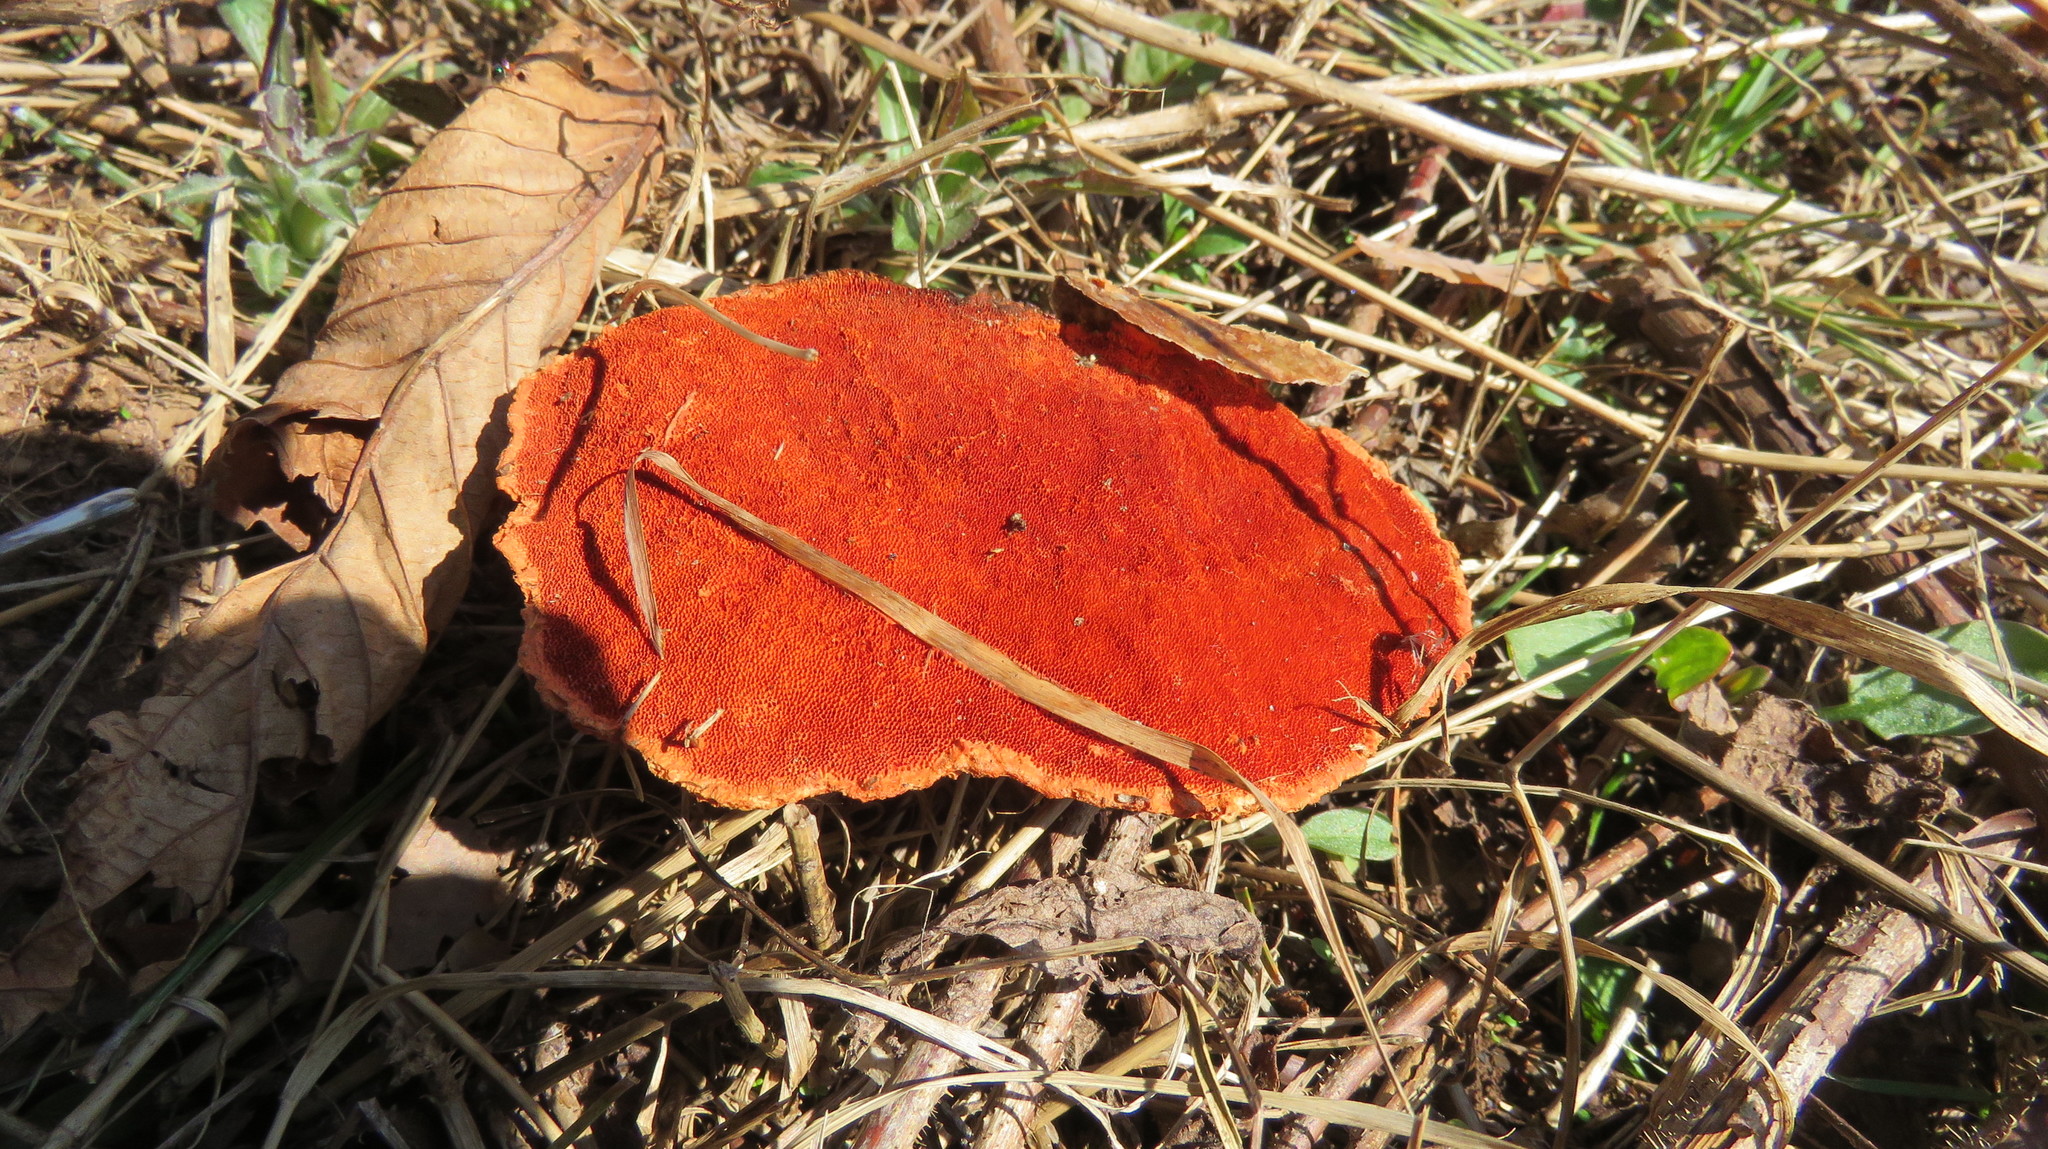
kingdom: Fungi
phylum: Basidiomycota
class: Agaricomycetes
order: Polyporales
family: Polyporaceae
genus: Trametes
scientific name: Trametes cinnabarina
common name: Northern cinnabar polypore
